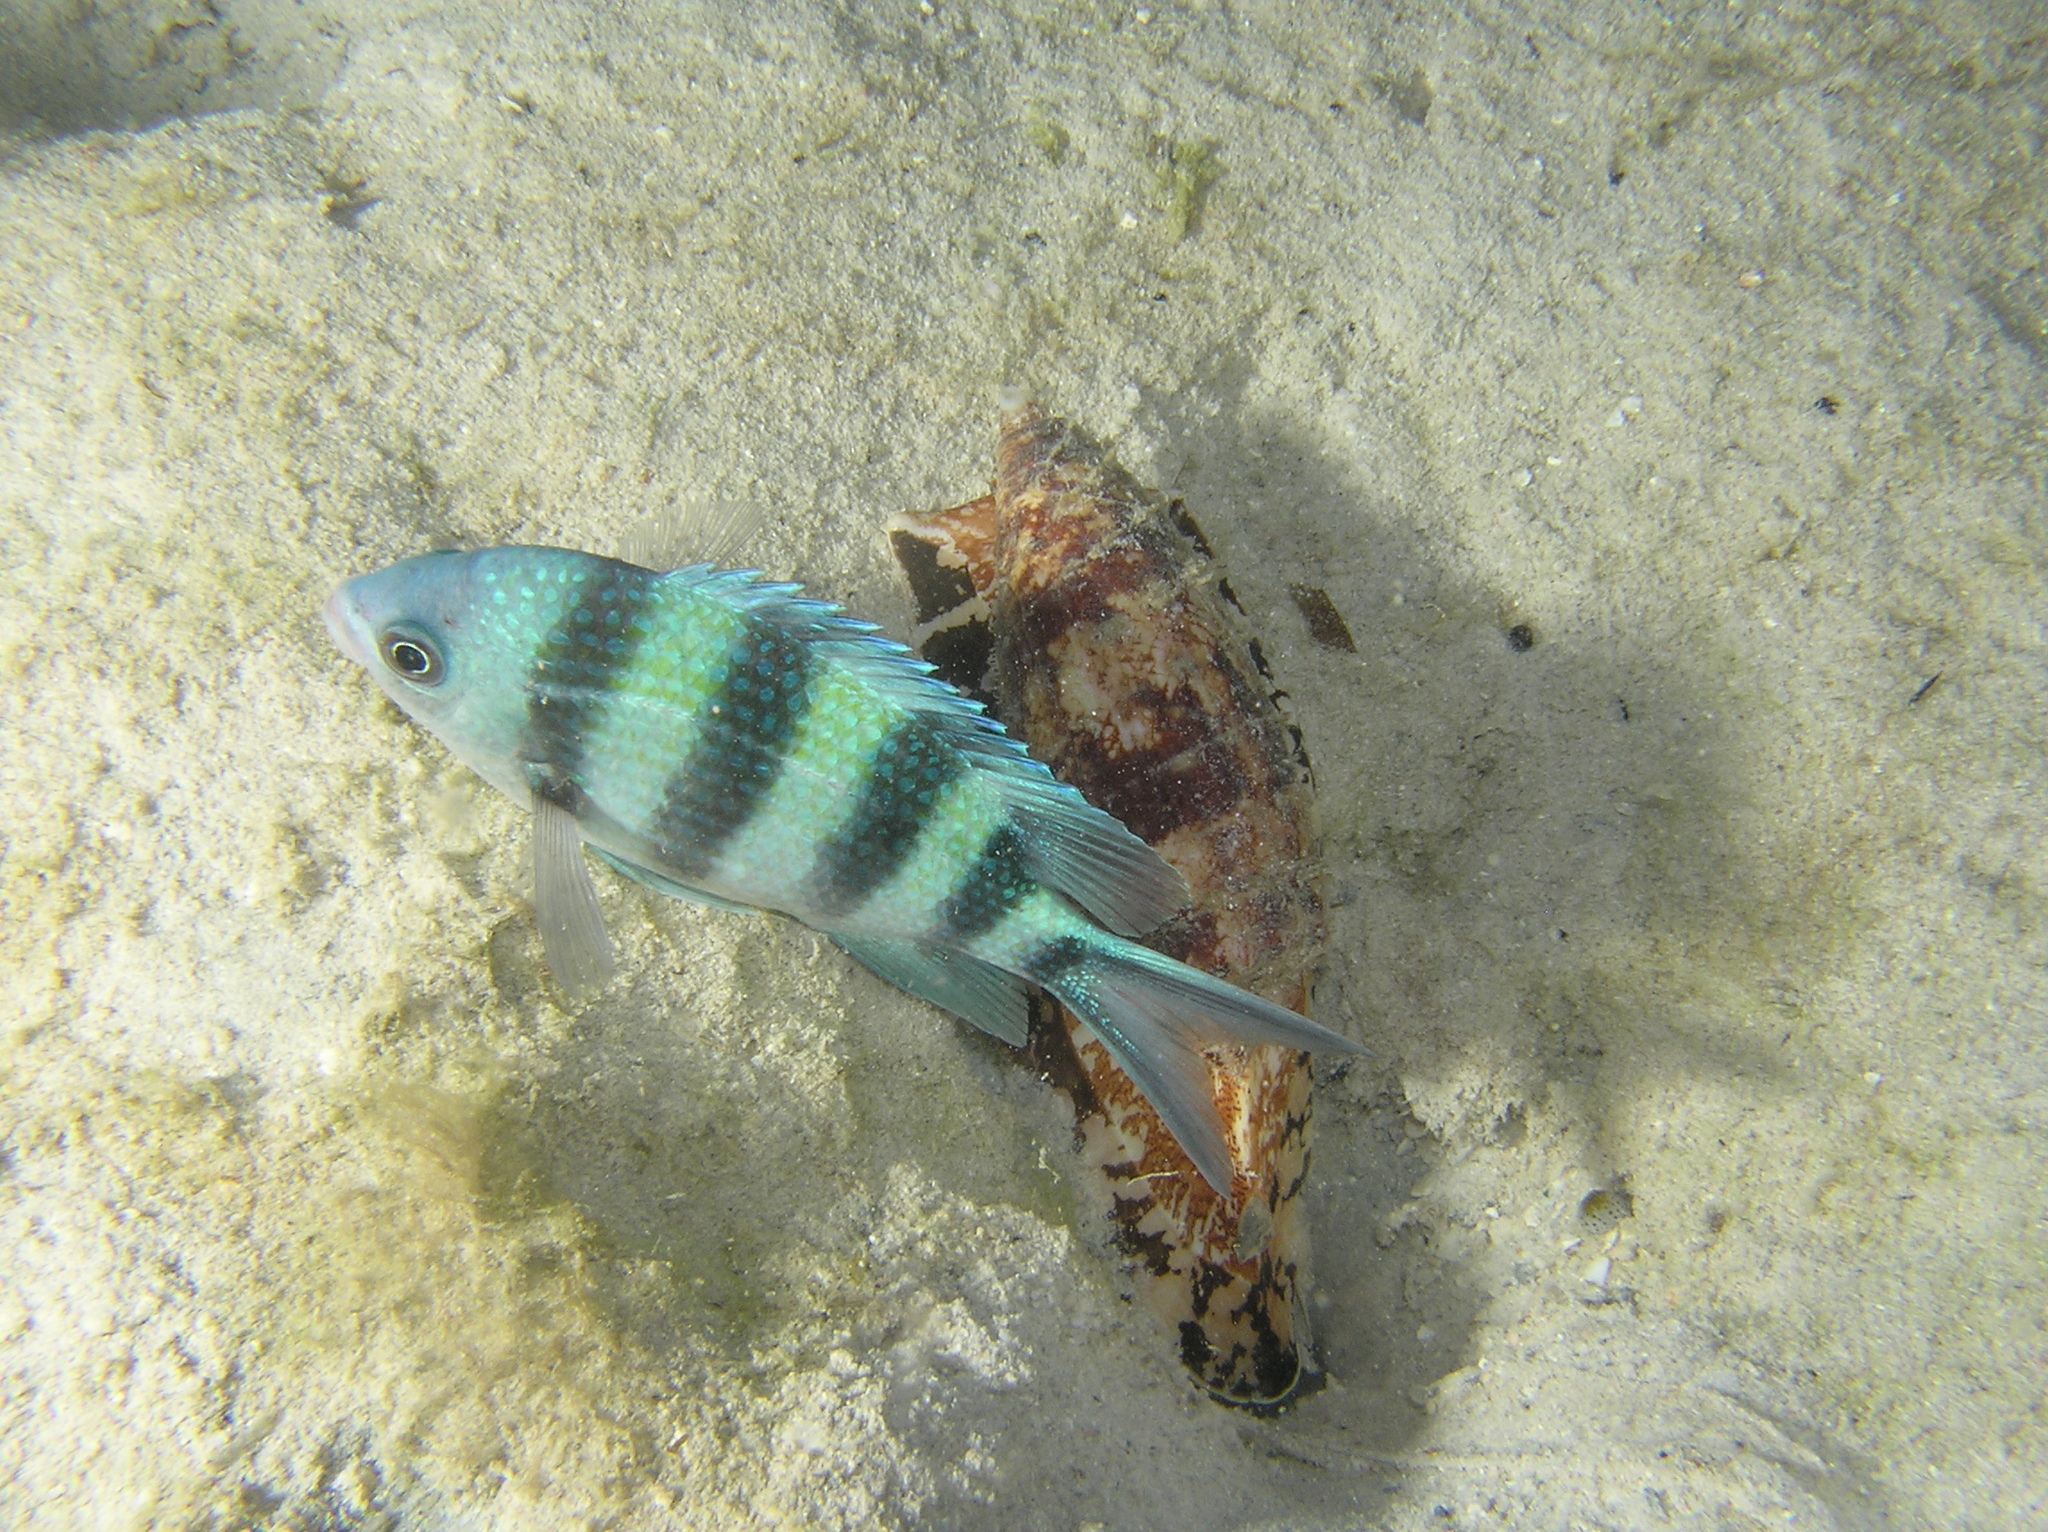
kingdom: Animalia
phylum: Chordata
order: Perciformes
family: Pomacentridae
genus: Abudefduf
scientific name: Abudefduf sexfasciatus
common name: Scissortail sergeant
